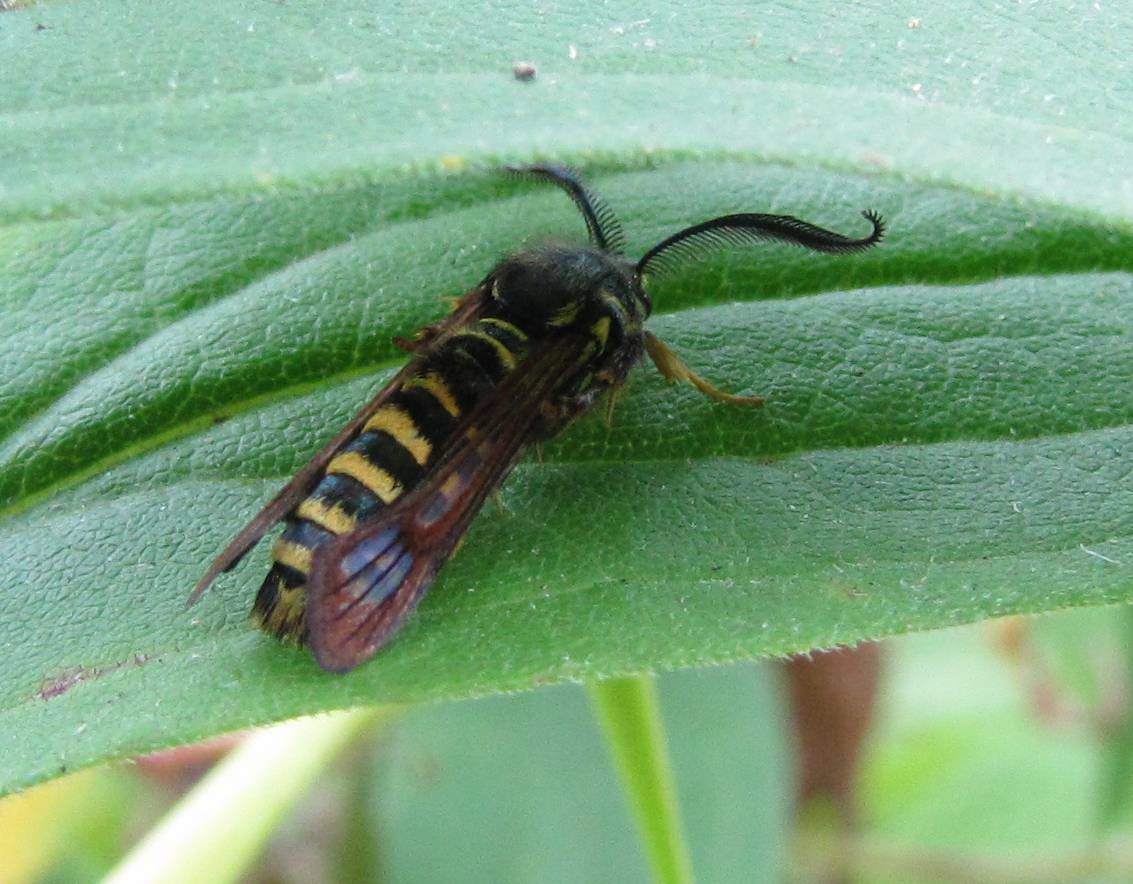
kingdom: Animalia
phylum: Arthropoda
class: Insecta
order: Lepidoptera
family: Sesiidae
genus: Pennisetia
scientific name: Pennisetia marginatum
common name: Raspberry crown borer
